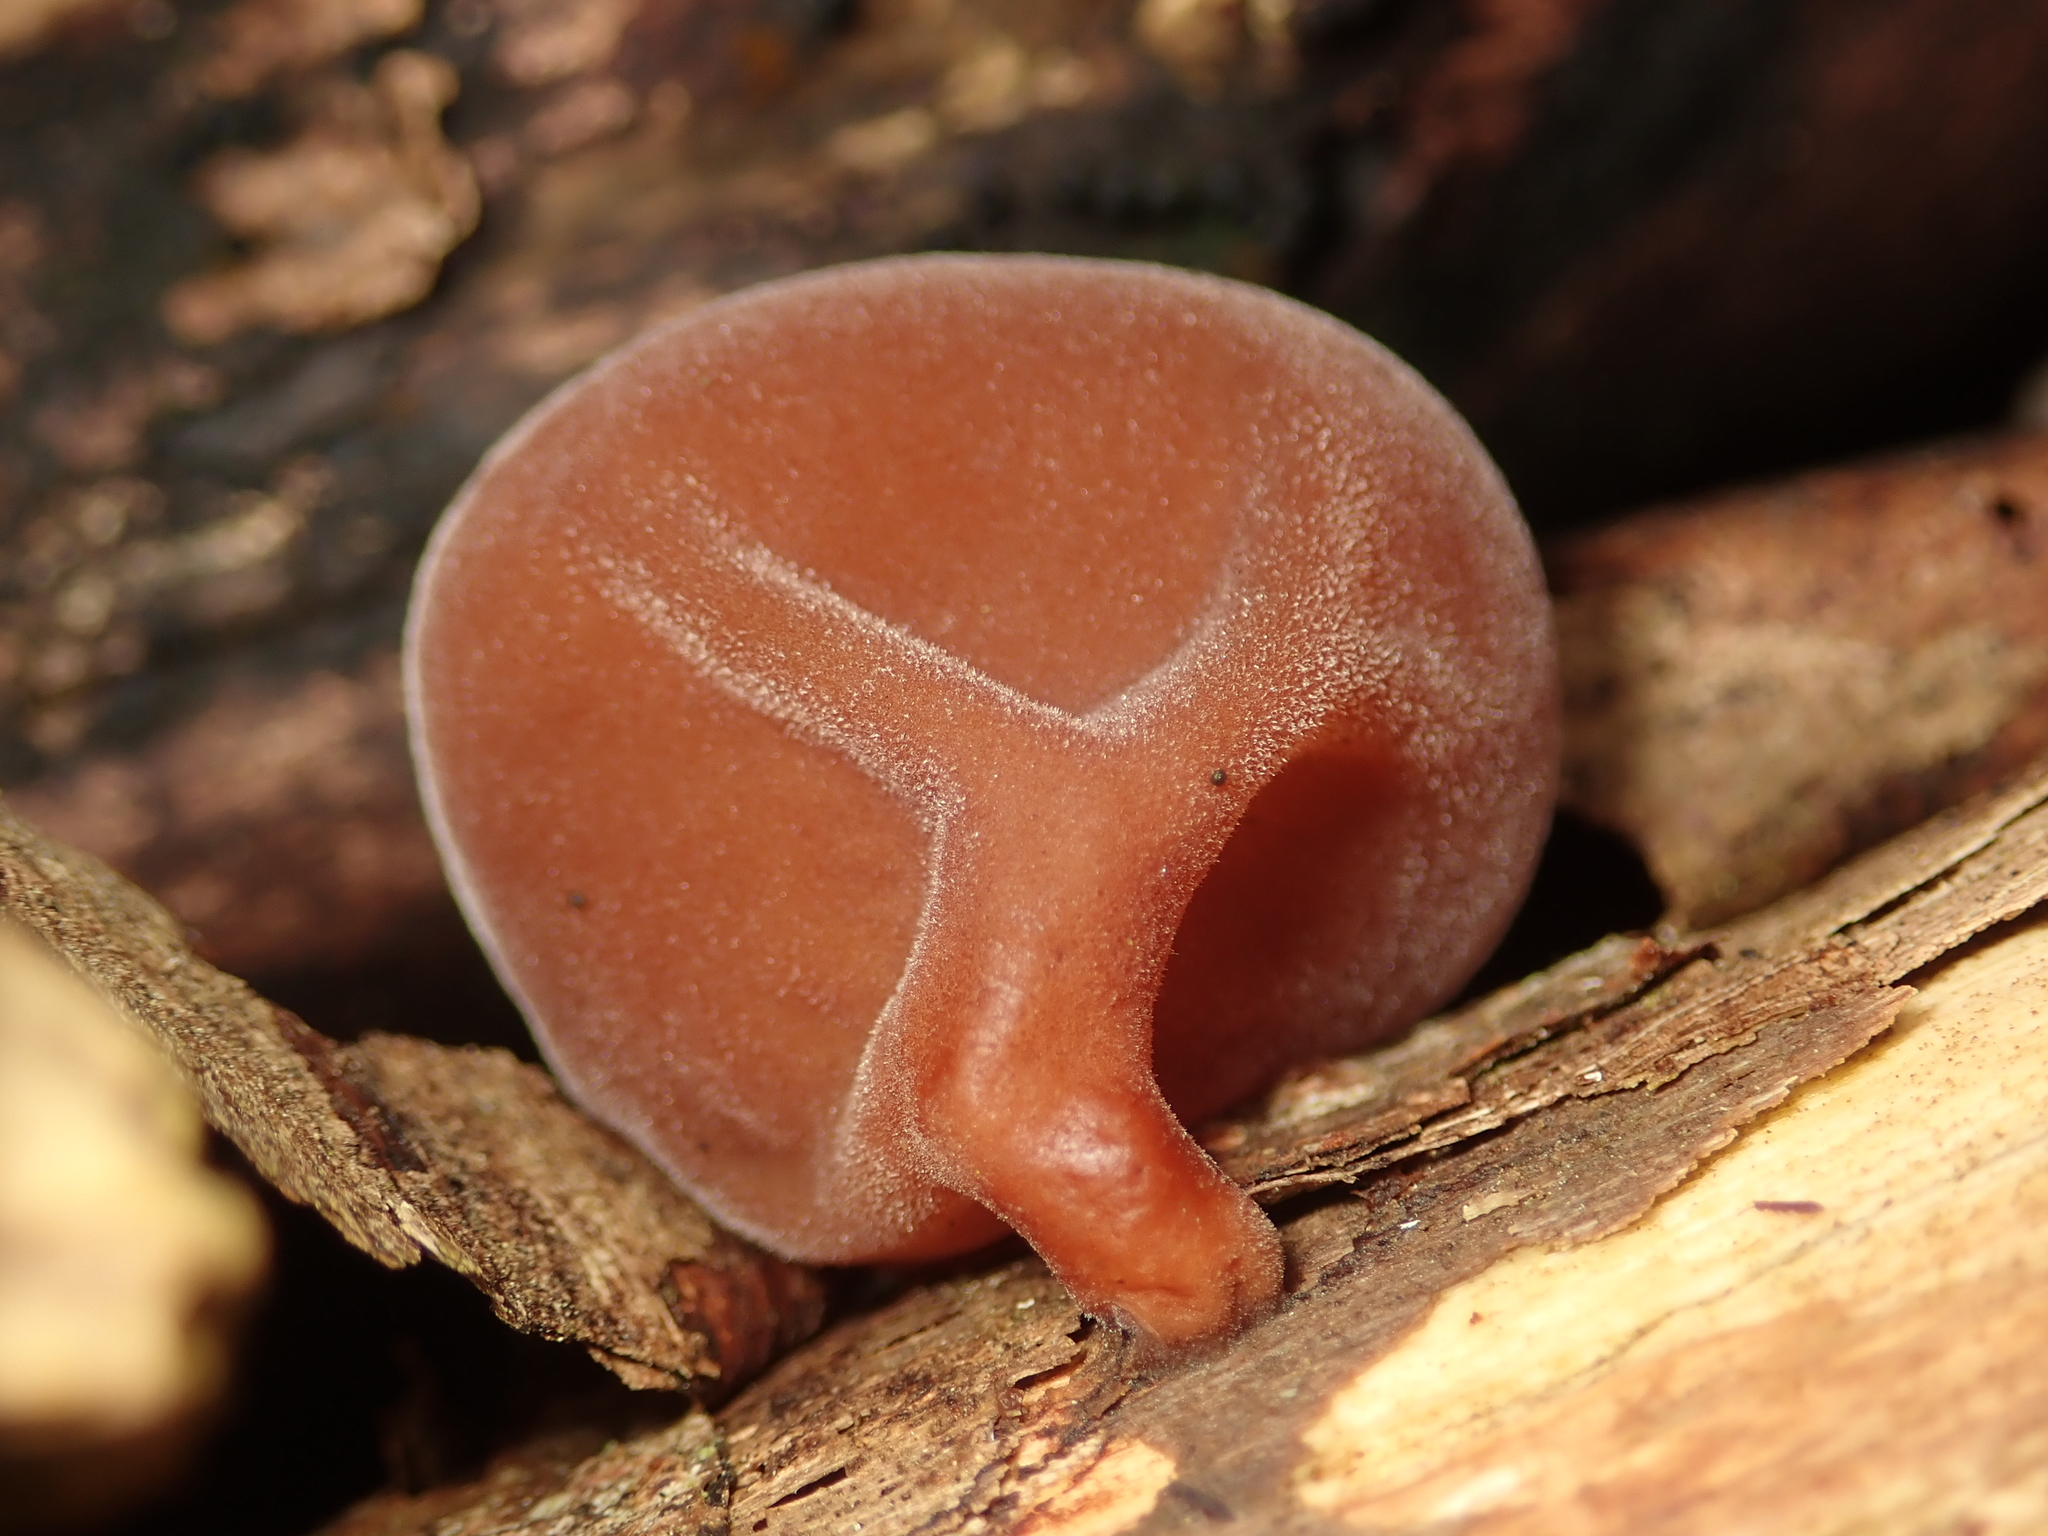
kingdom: Fungi
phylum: Basidiomycota
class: Agaricomycetes
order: Auriculariales
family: Auriculariaceae
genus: Auricularia
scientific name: Auricularia auricula-judae
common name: Jelly ear
